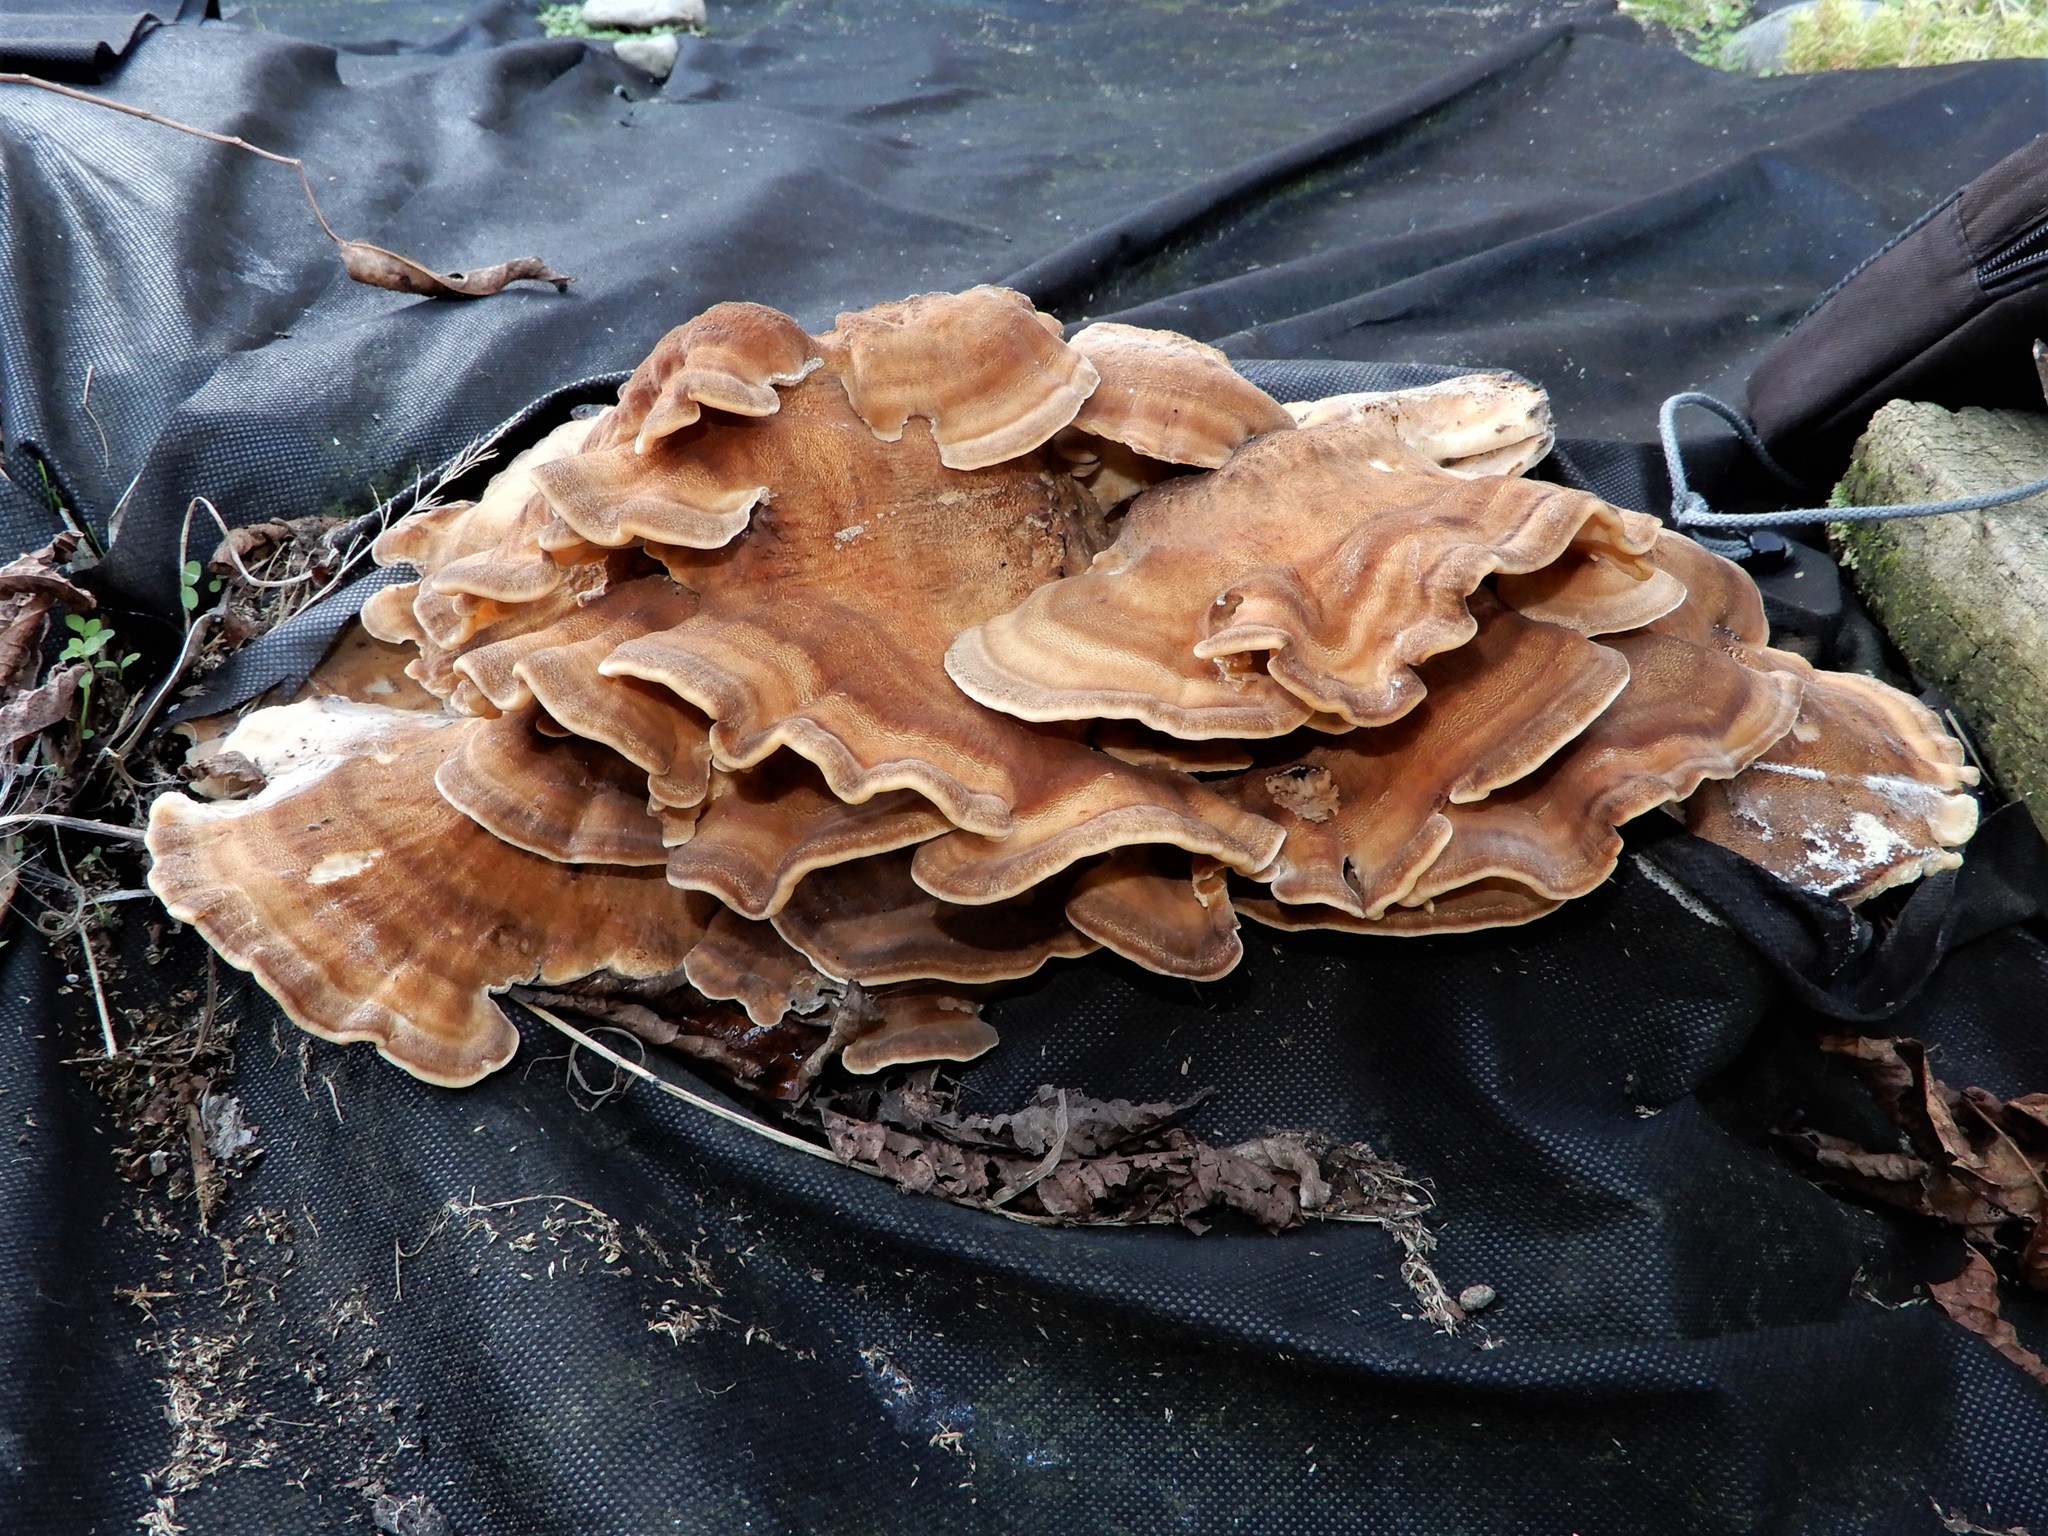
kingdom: Fungi
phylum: Basidiomycota
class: Agaricomycetes
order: Polyporales
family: Meripilaceae
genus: Meripilus
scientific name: Meripilus giganteus
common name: Giant polypore
